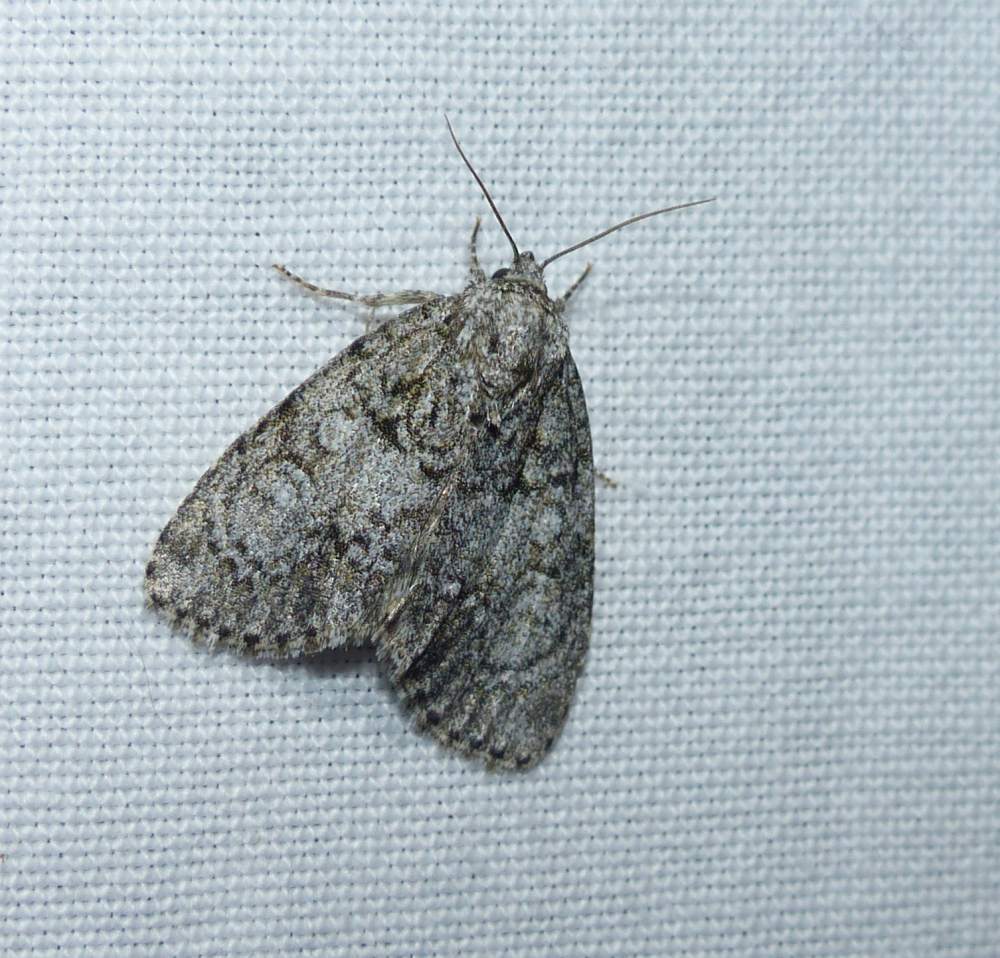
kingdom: Animalia
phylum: Arthropoda
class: Insecta
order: Lepidoptera
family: Noctuidae
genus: Acronicta
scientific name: Acronicta retardata
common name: Maple dagger
